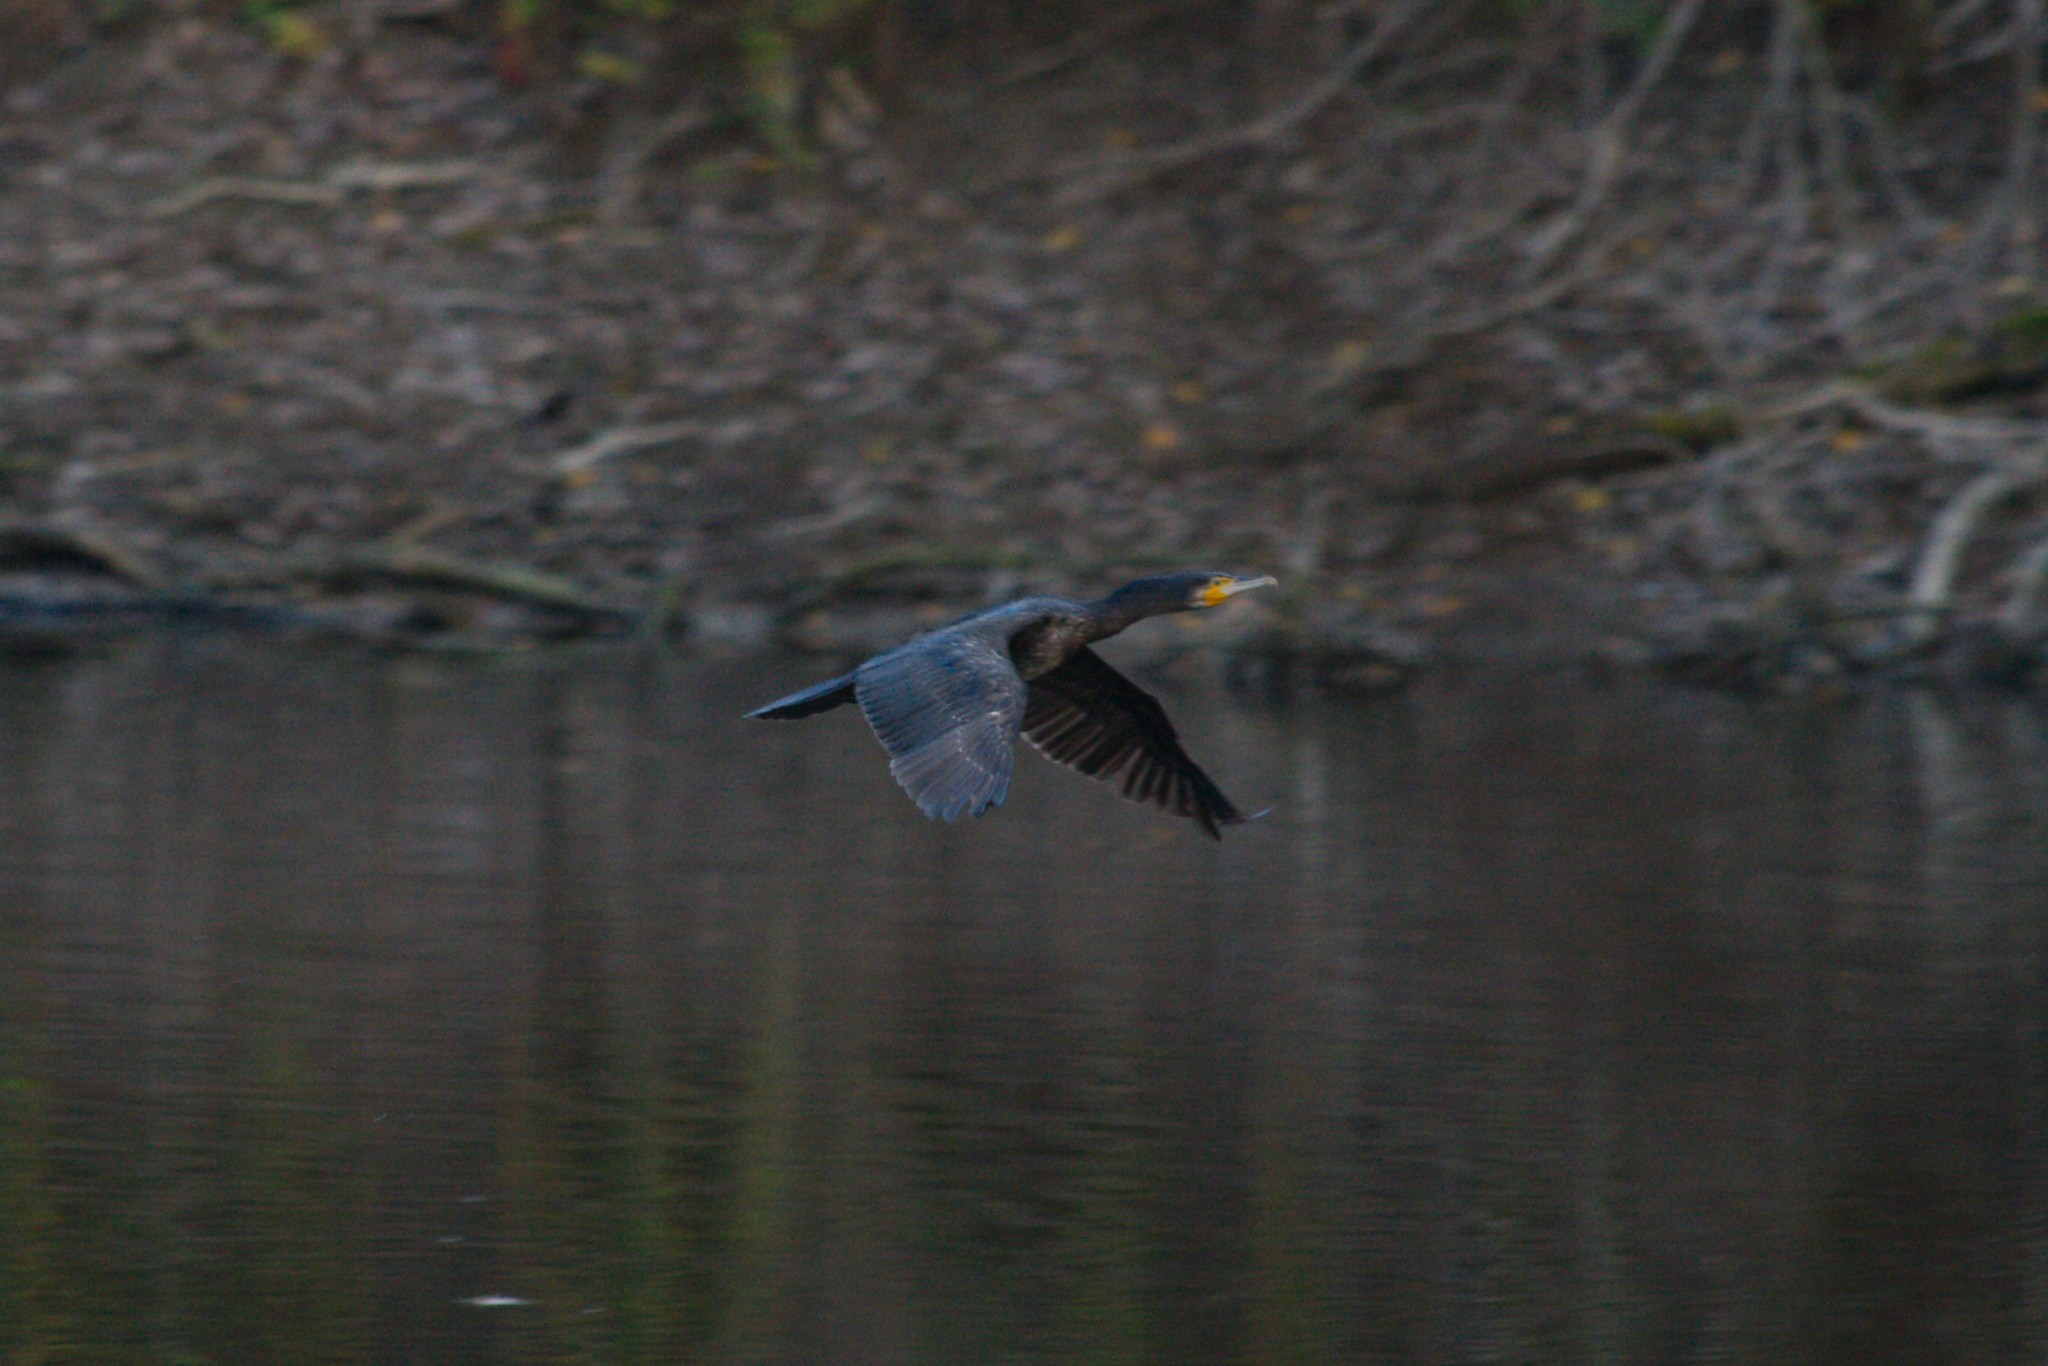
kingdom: Animalia
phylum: Chordata
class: Aves
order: Suliformes
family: Phalacrocoracidae
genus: Phalacrocorax
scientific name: Phalacrocorax carbo
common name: Great cormorant
